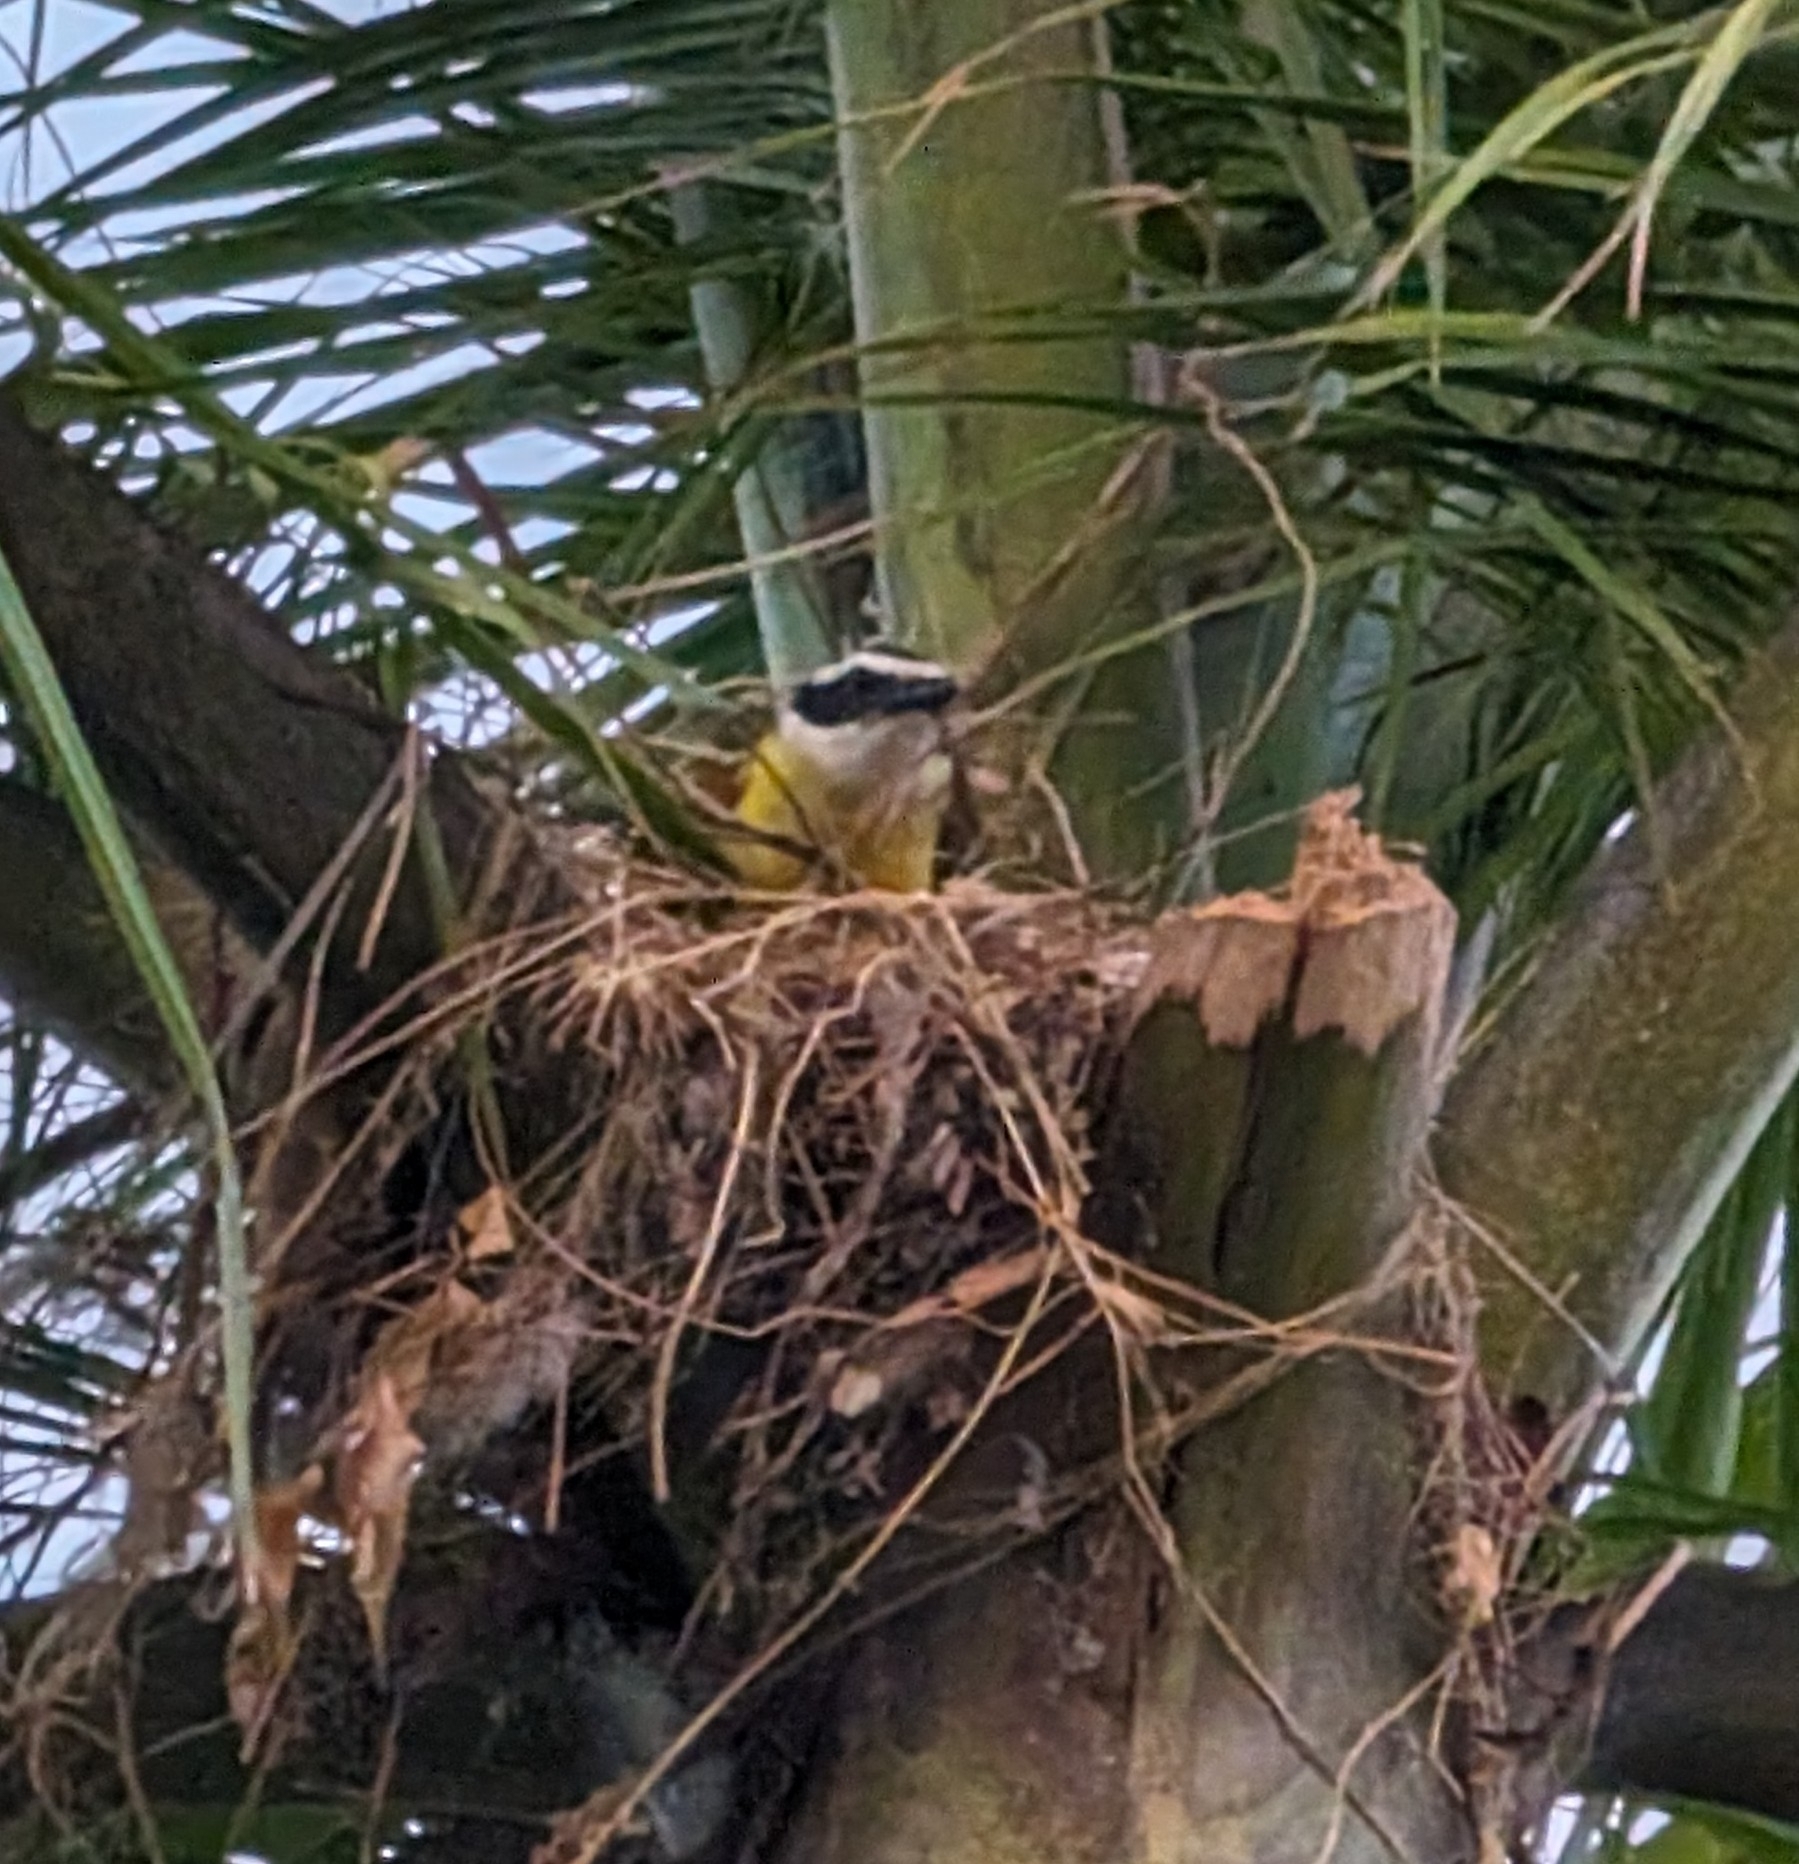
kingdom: Animalia
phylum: Chordata
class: Aves
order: Passeriformes
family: Tyrannidae
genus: Pitangus
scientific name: Pitangus sulphuratus
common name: Great kiskadee
